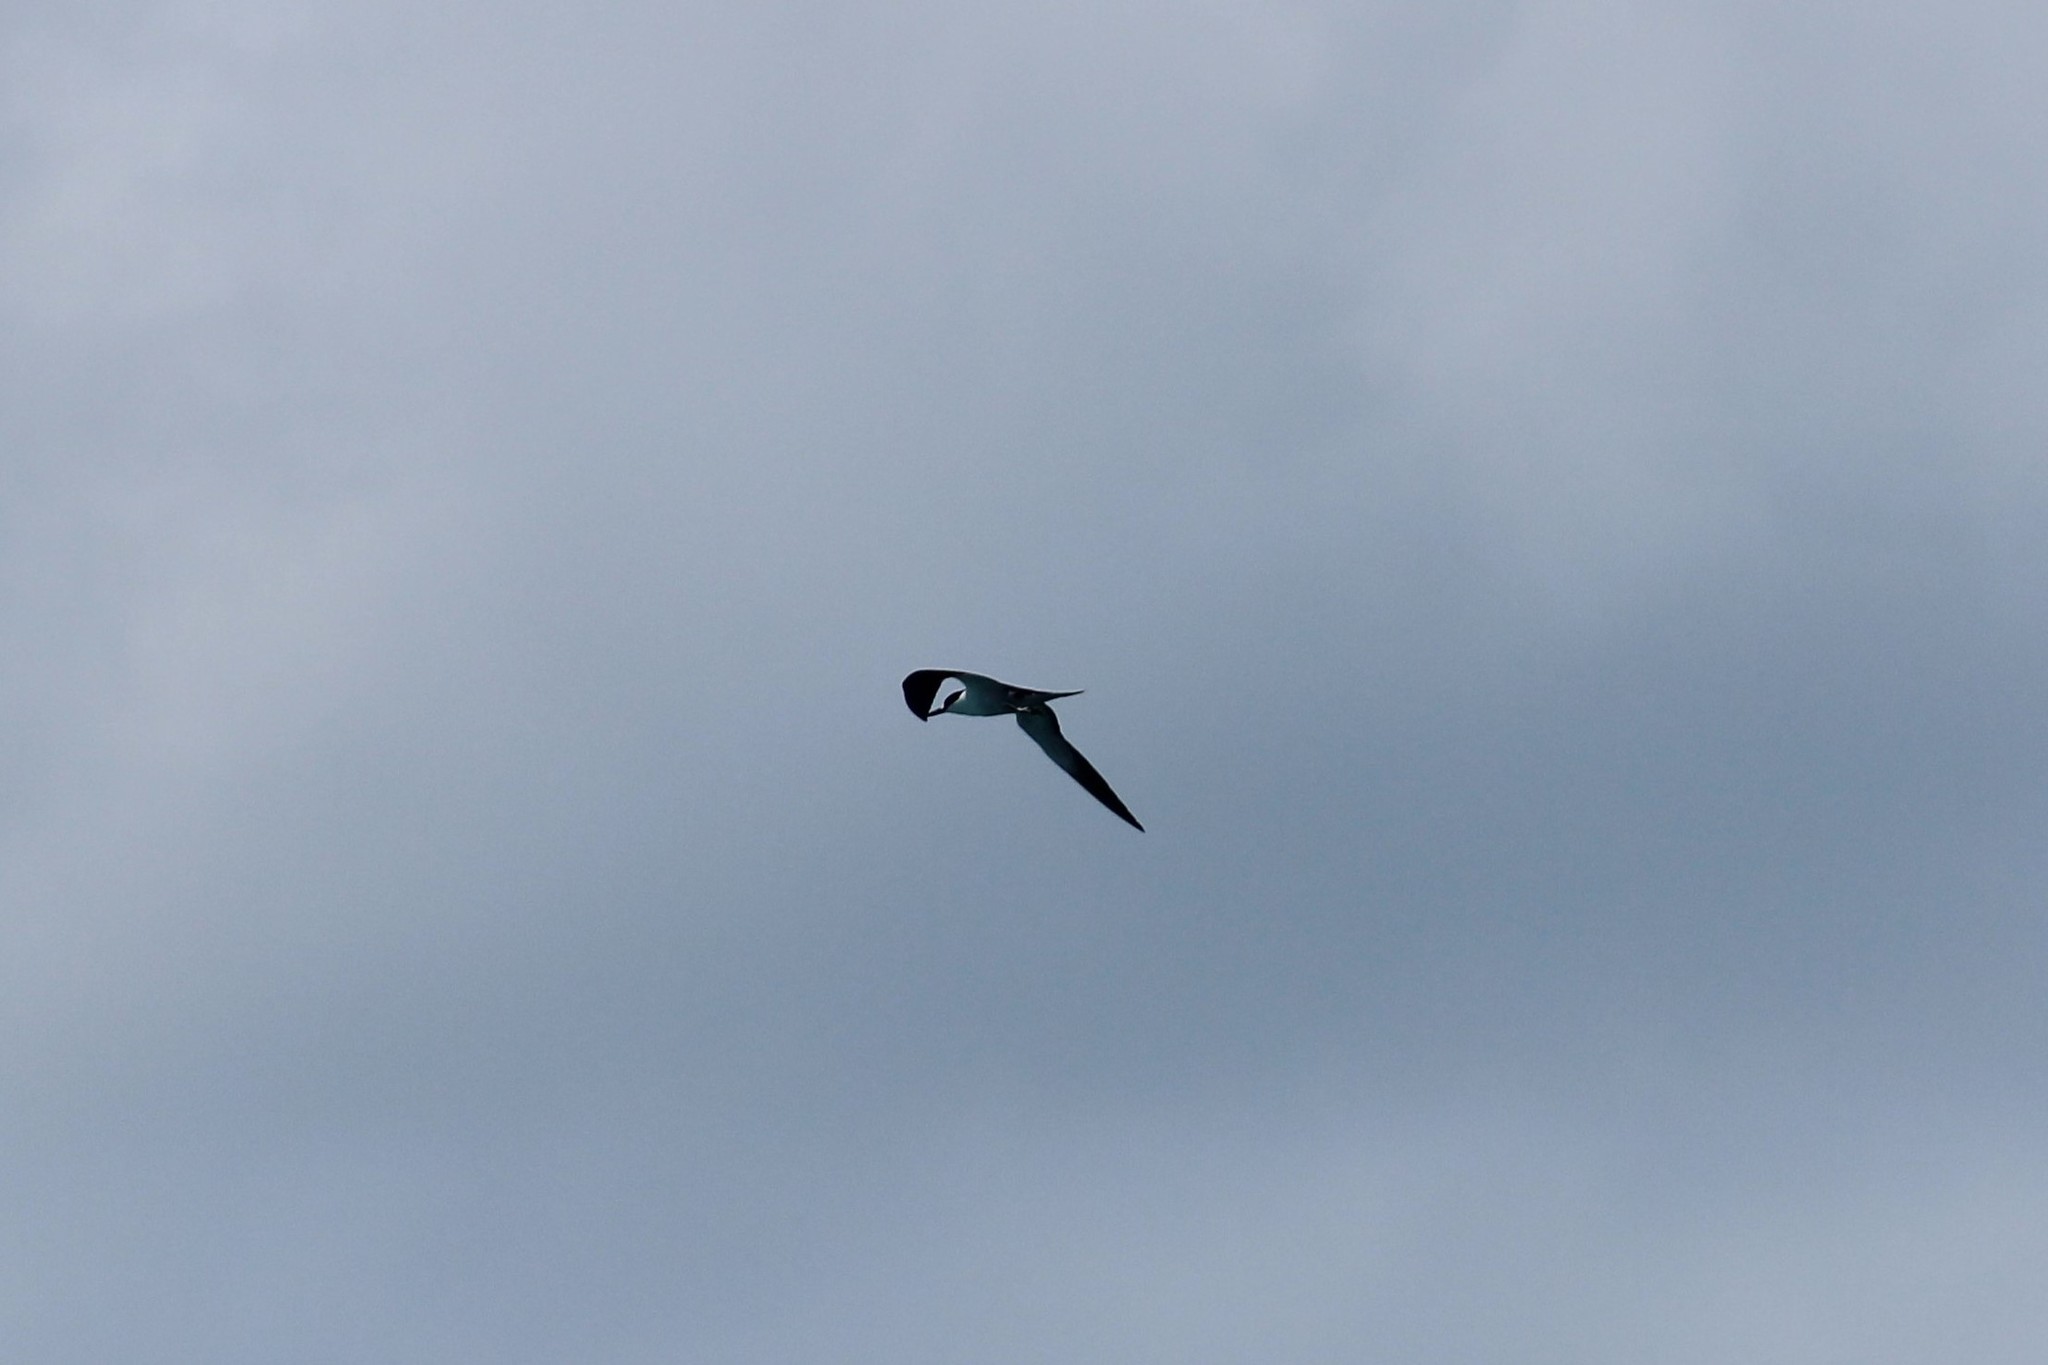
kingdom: Animalia
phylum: Chordata
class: Aves
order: Charadriiformes
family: Laridae
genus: Onychoprion
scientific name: Onychoprion fuscatus
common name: Sooty tern
